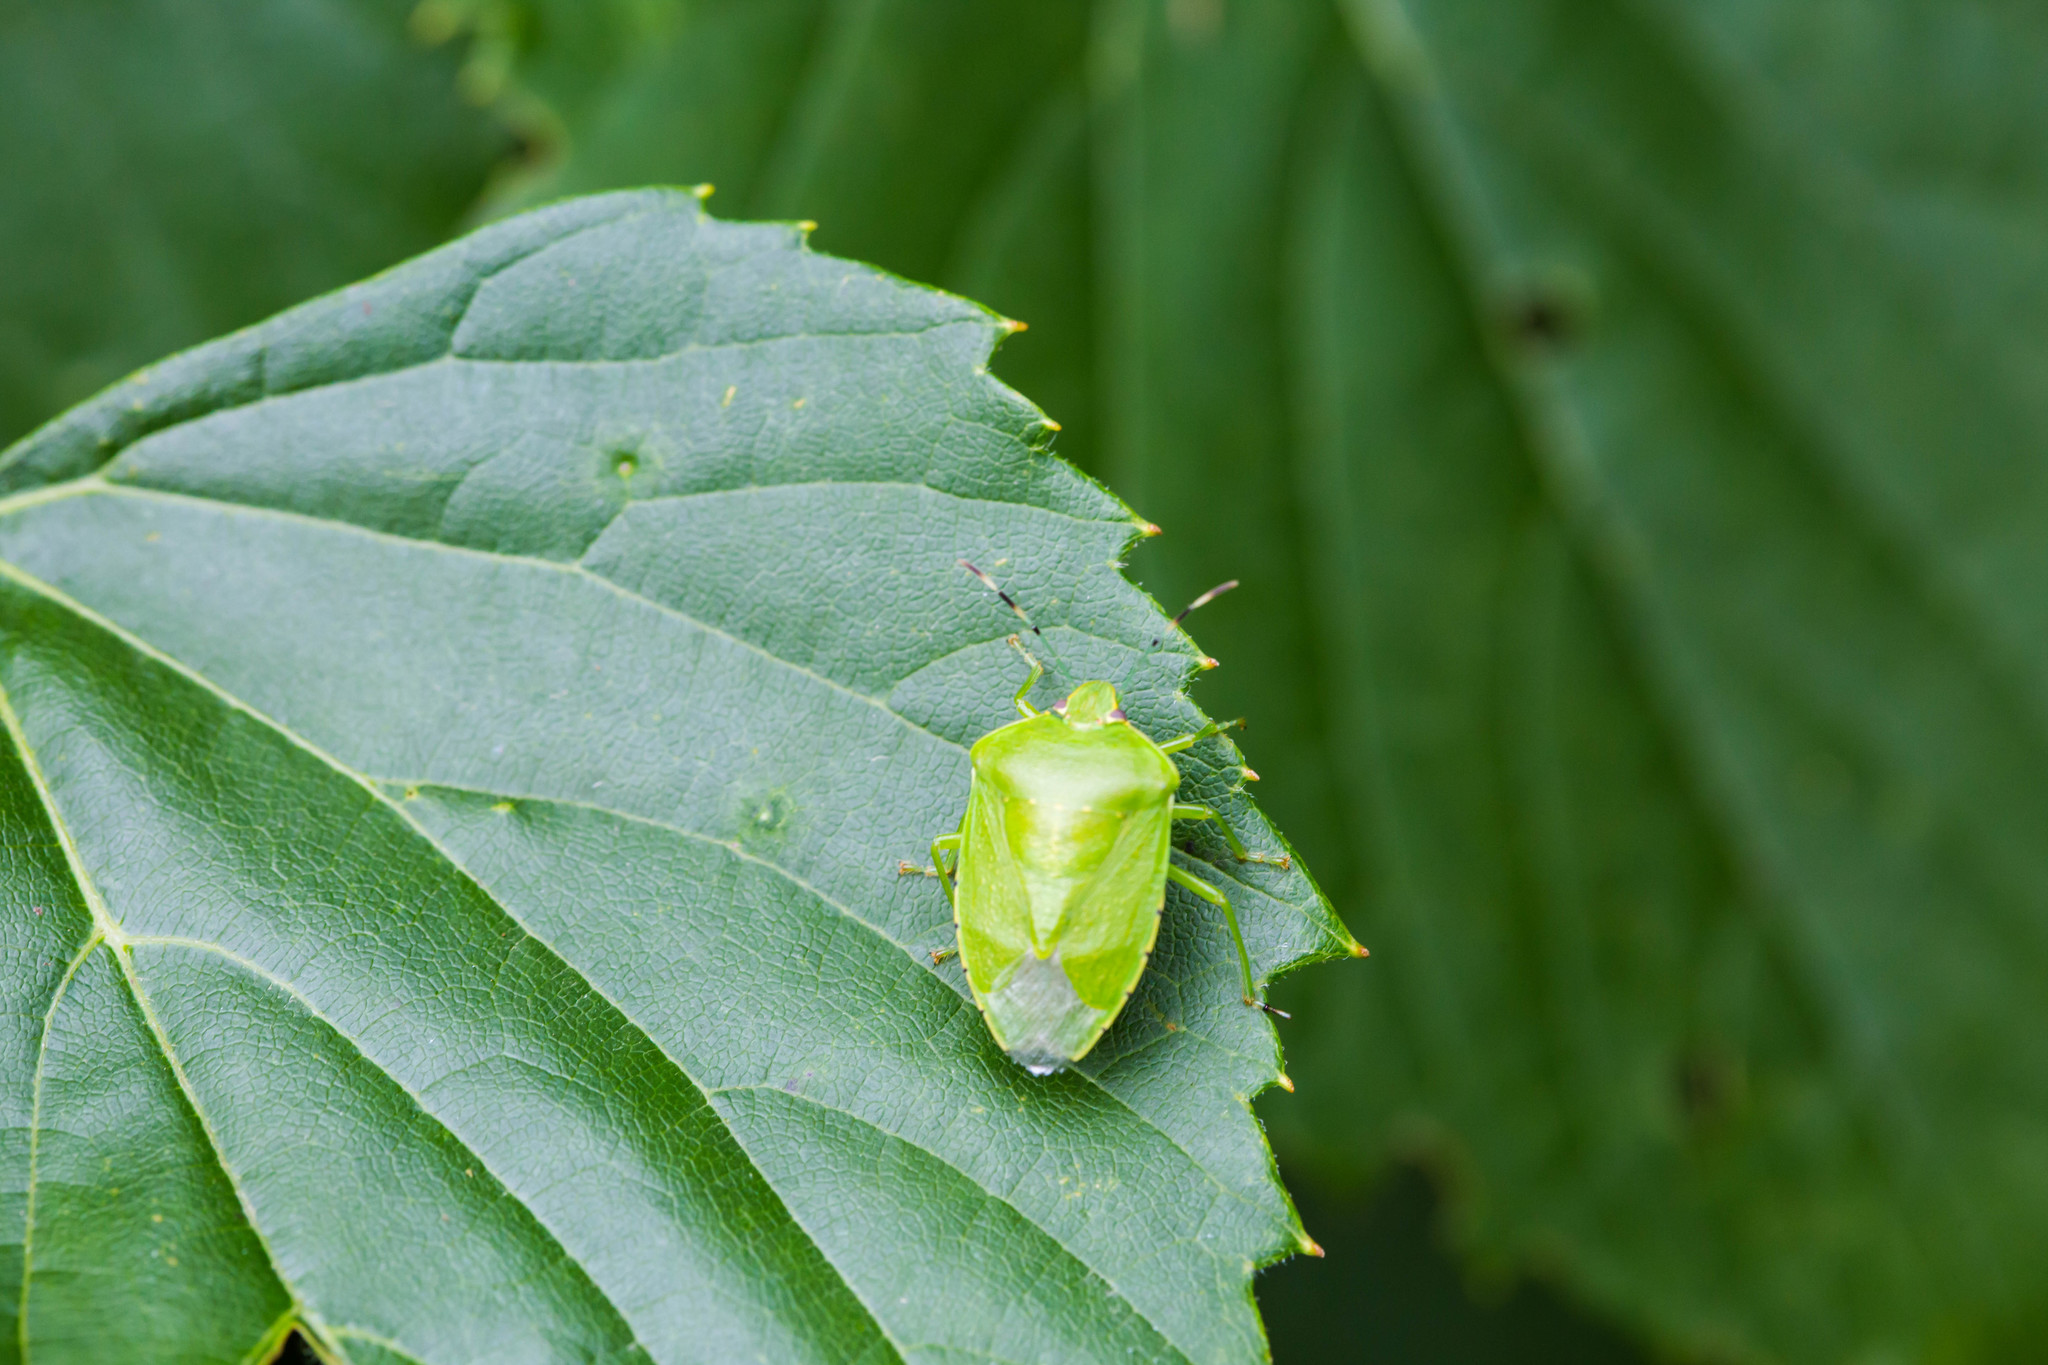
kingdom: Animalia
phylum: Arthropoda
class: Insecta
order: Hemiptera
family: Pentatomidae
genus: Chinavia
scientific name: Chinavia hilaris
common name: Green stink bug
